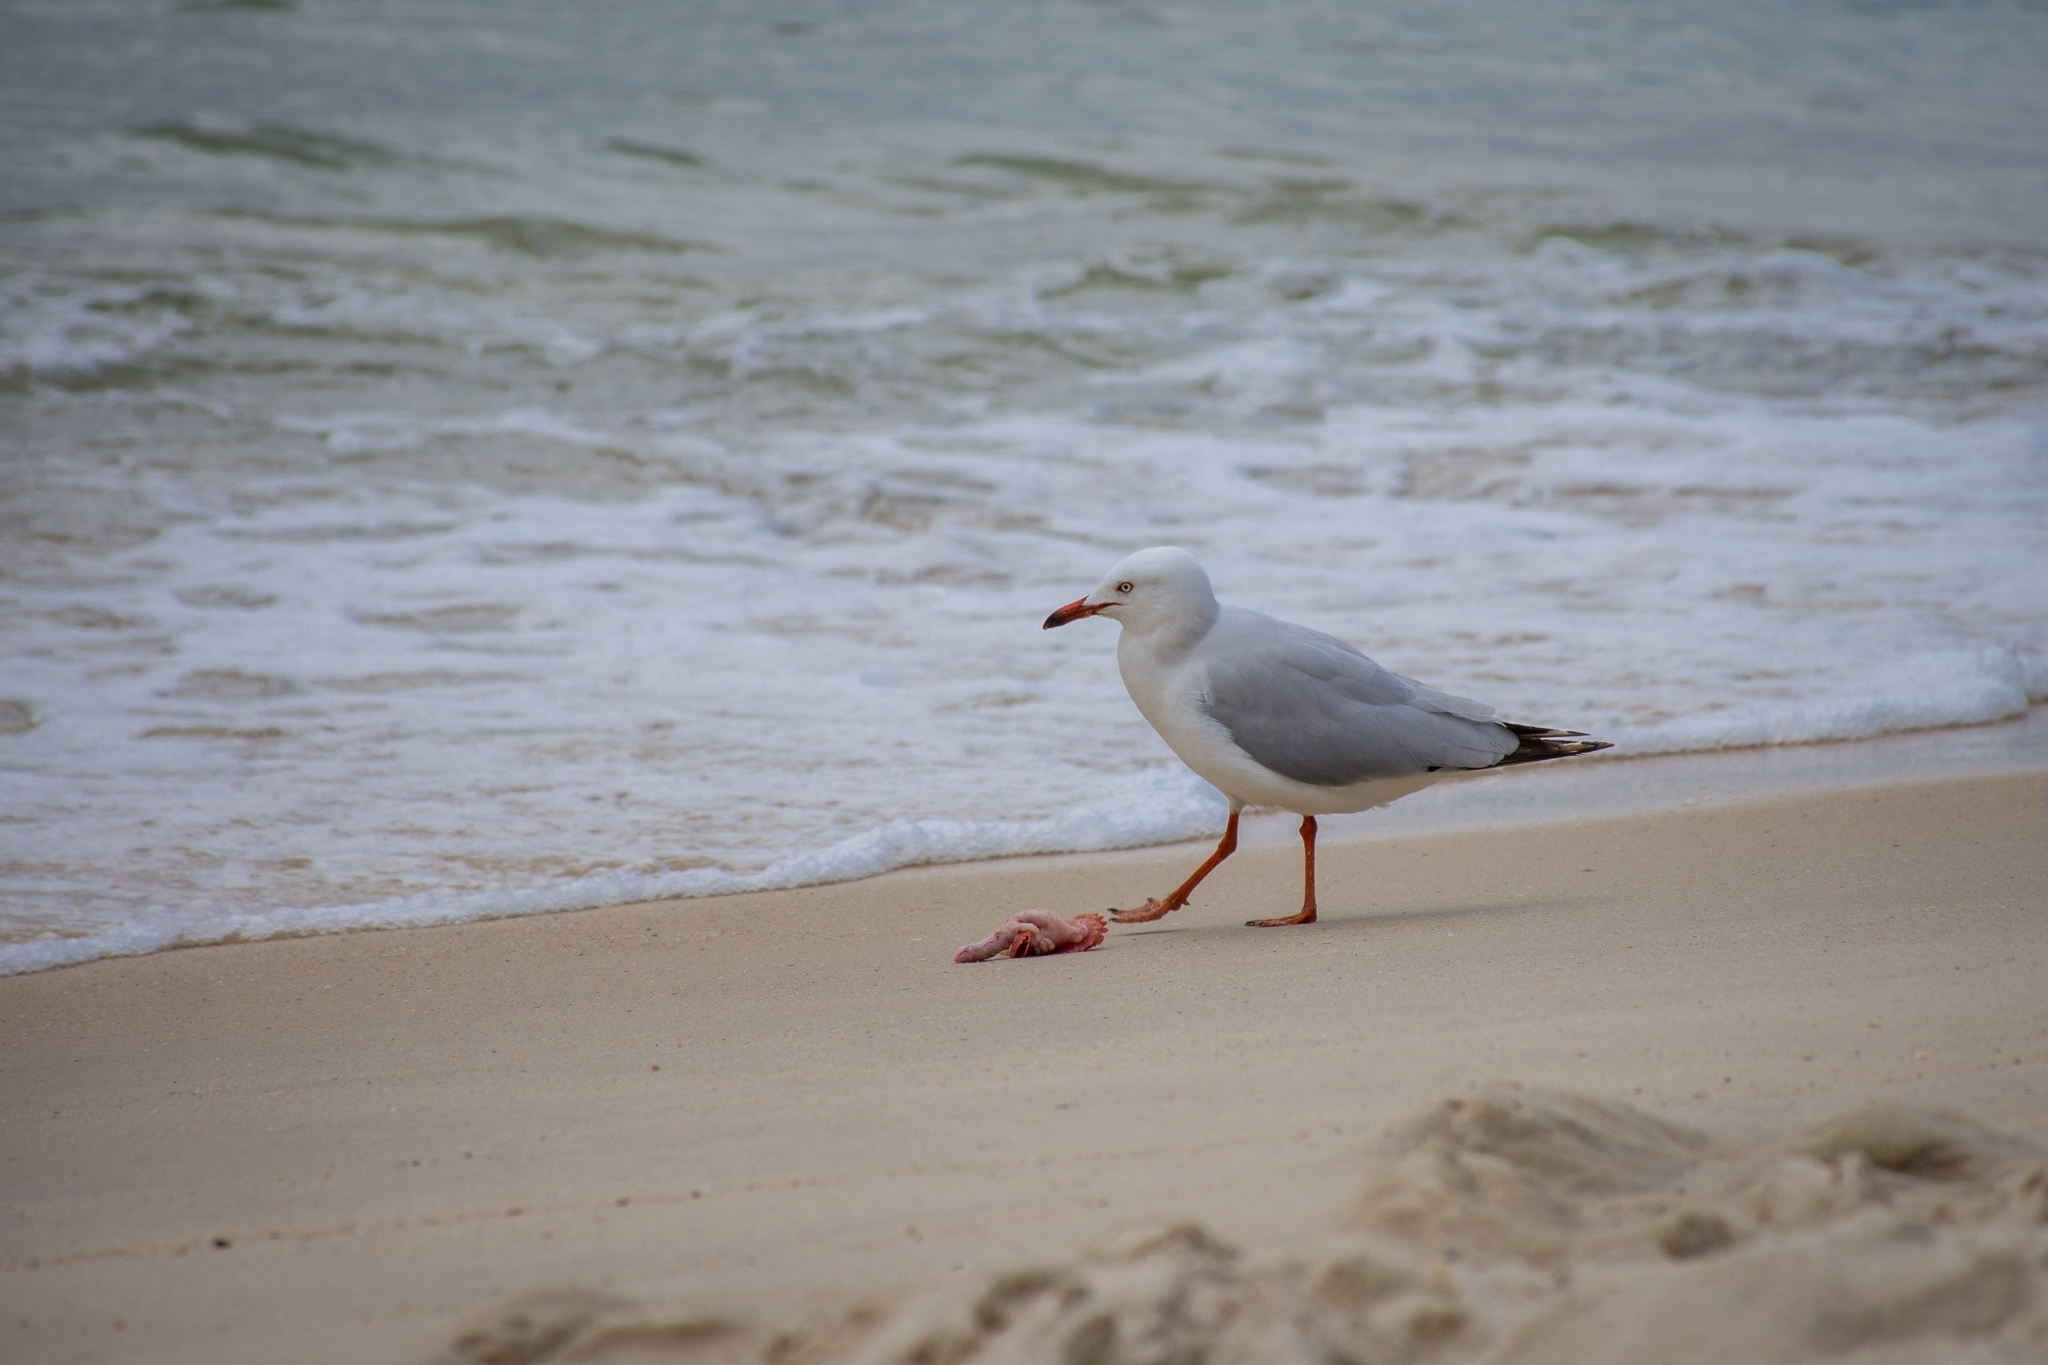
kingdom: Animalia
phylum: Chordata
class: Aves
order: Charadriiformes
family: Laridae
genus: Chroicocephalus
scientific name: Chroicocephalus novaehollandiae
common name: Silver gull
